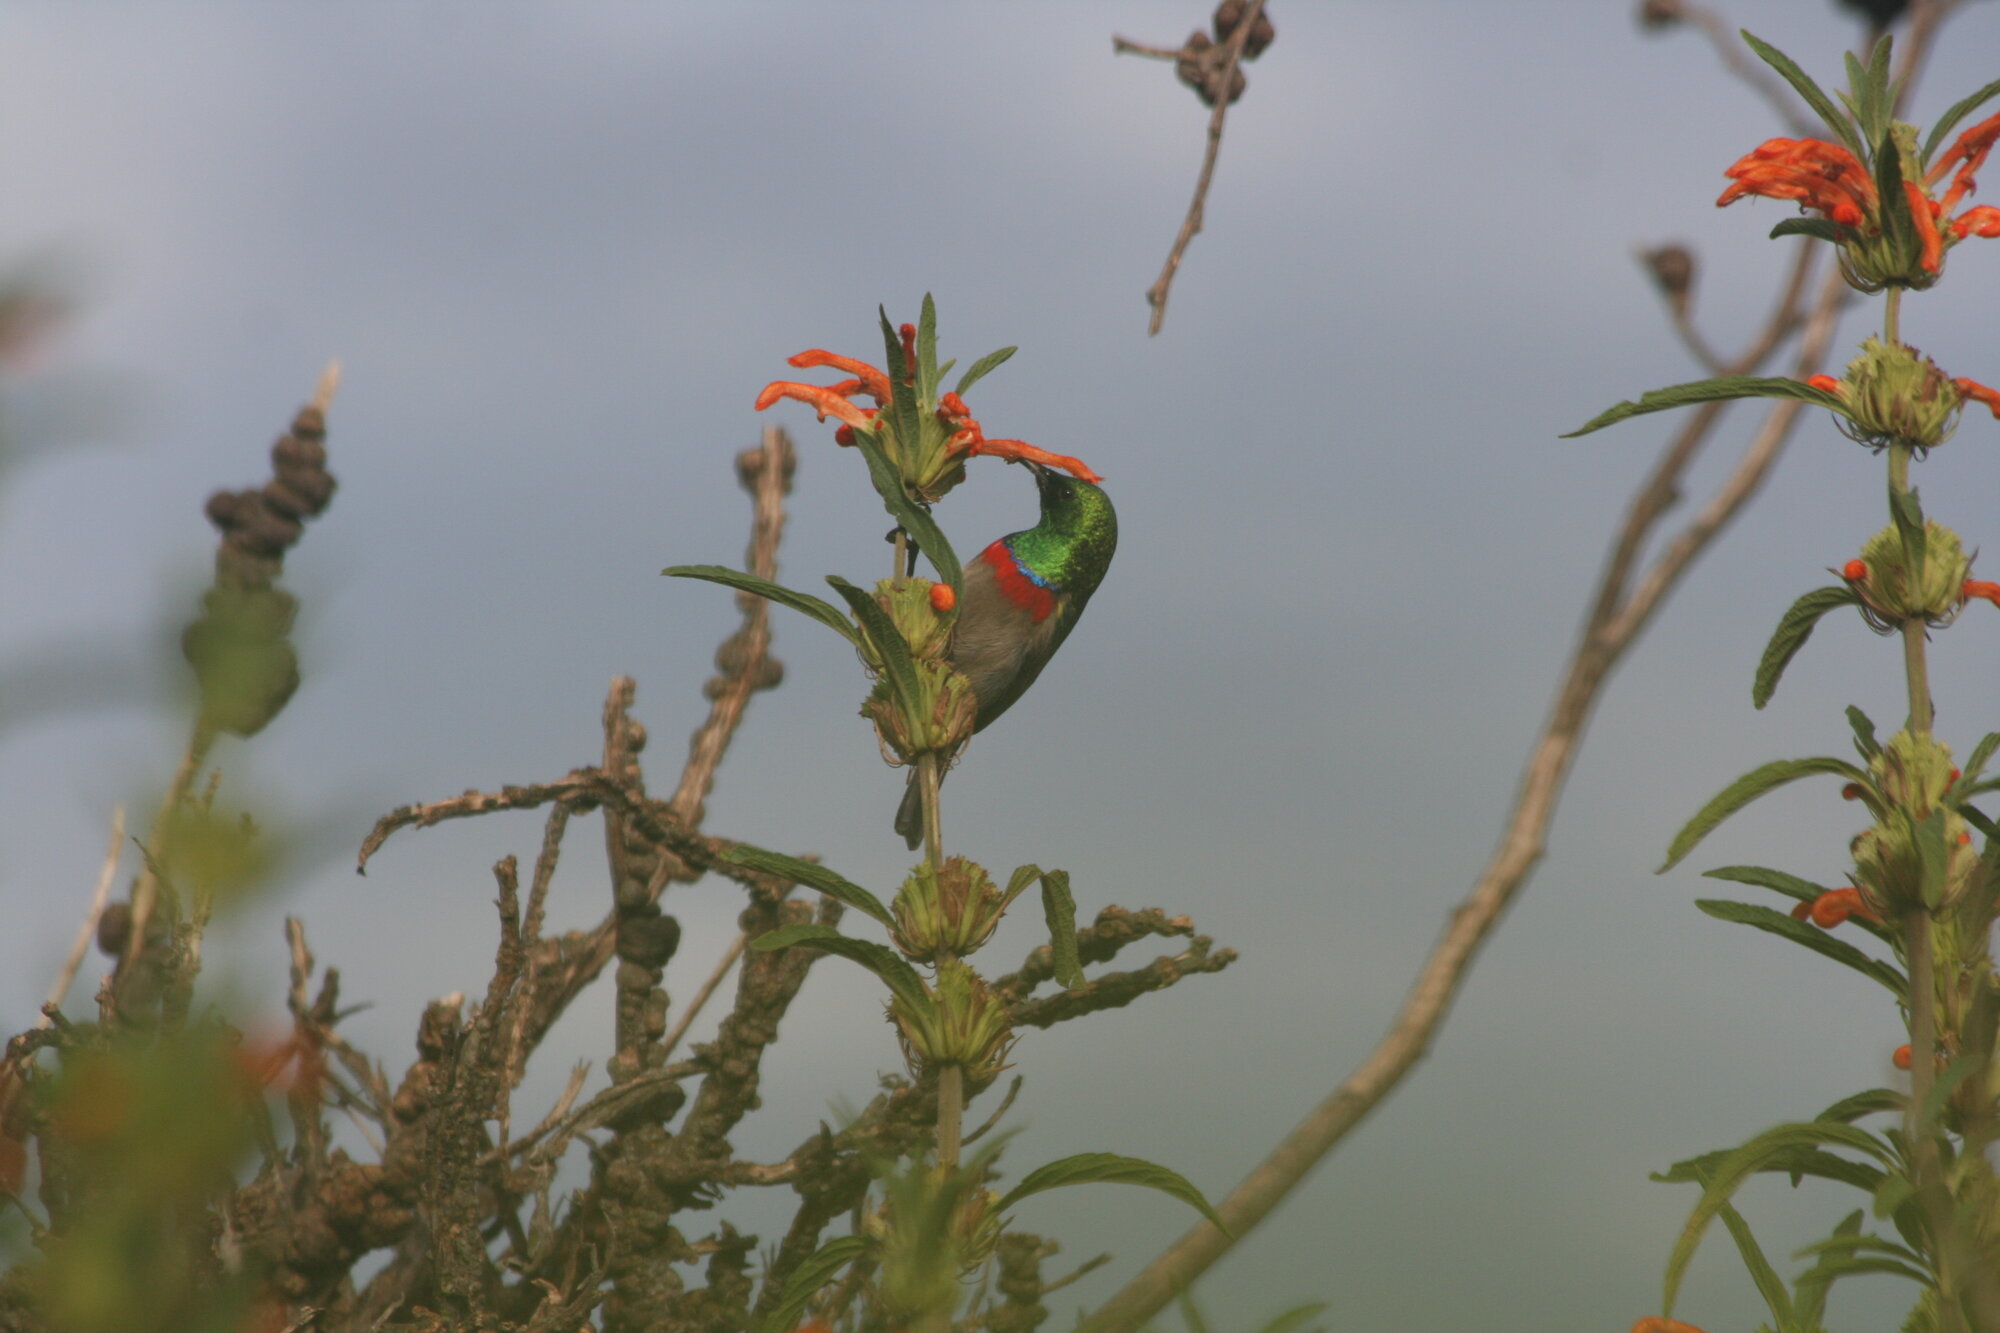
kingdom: Animalia
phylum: Chordata
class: Aves
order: Passeriformes
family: Nectariniidae
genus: Cinnyris
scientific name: Cinnyris chalybeus
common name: Southern double-collared sunbird
